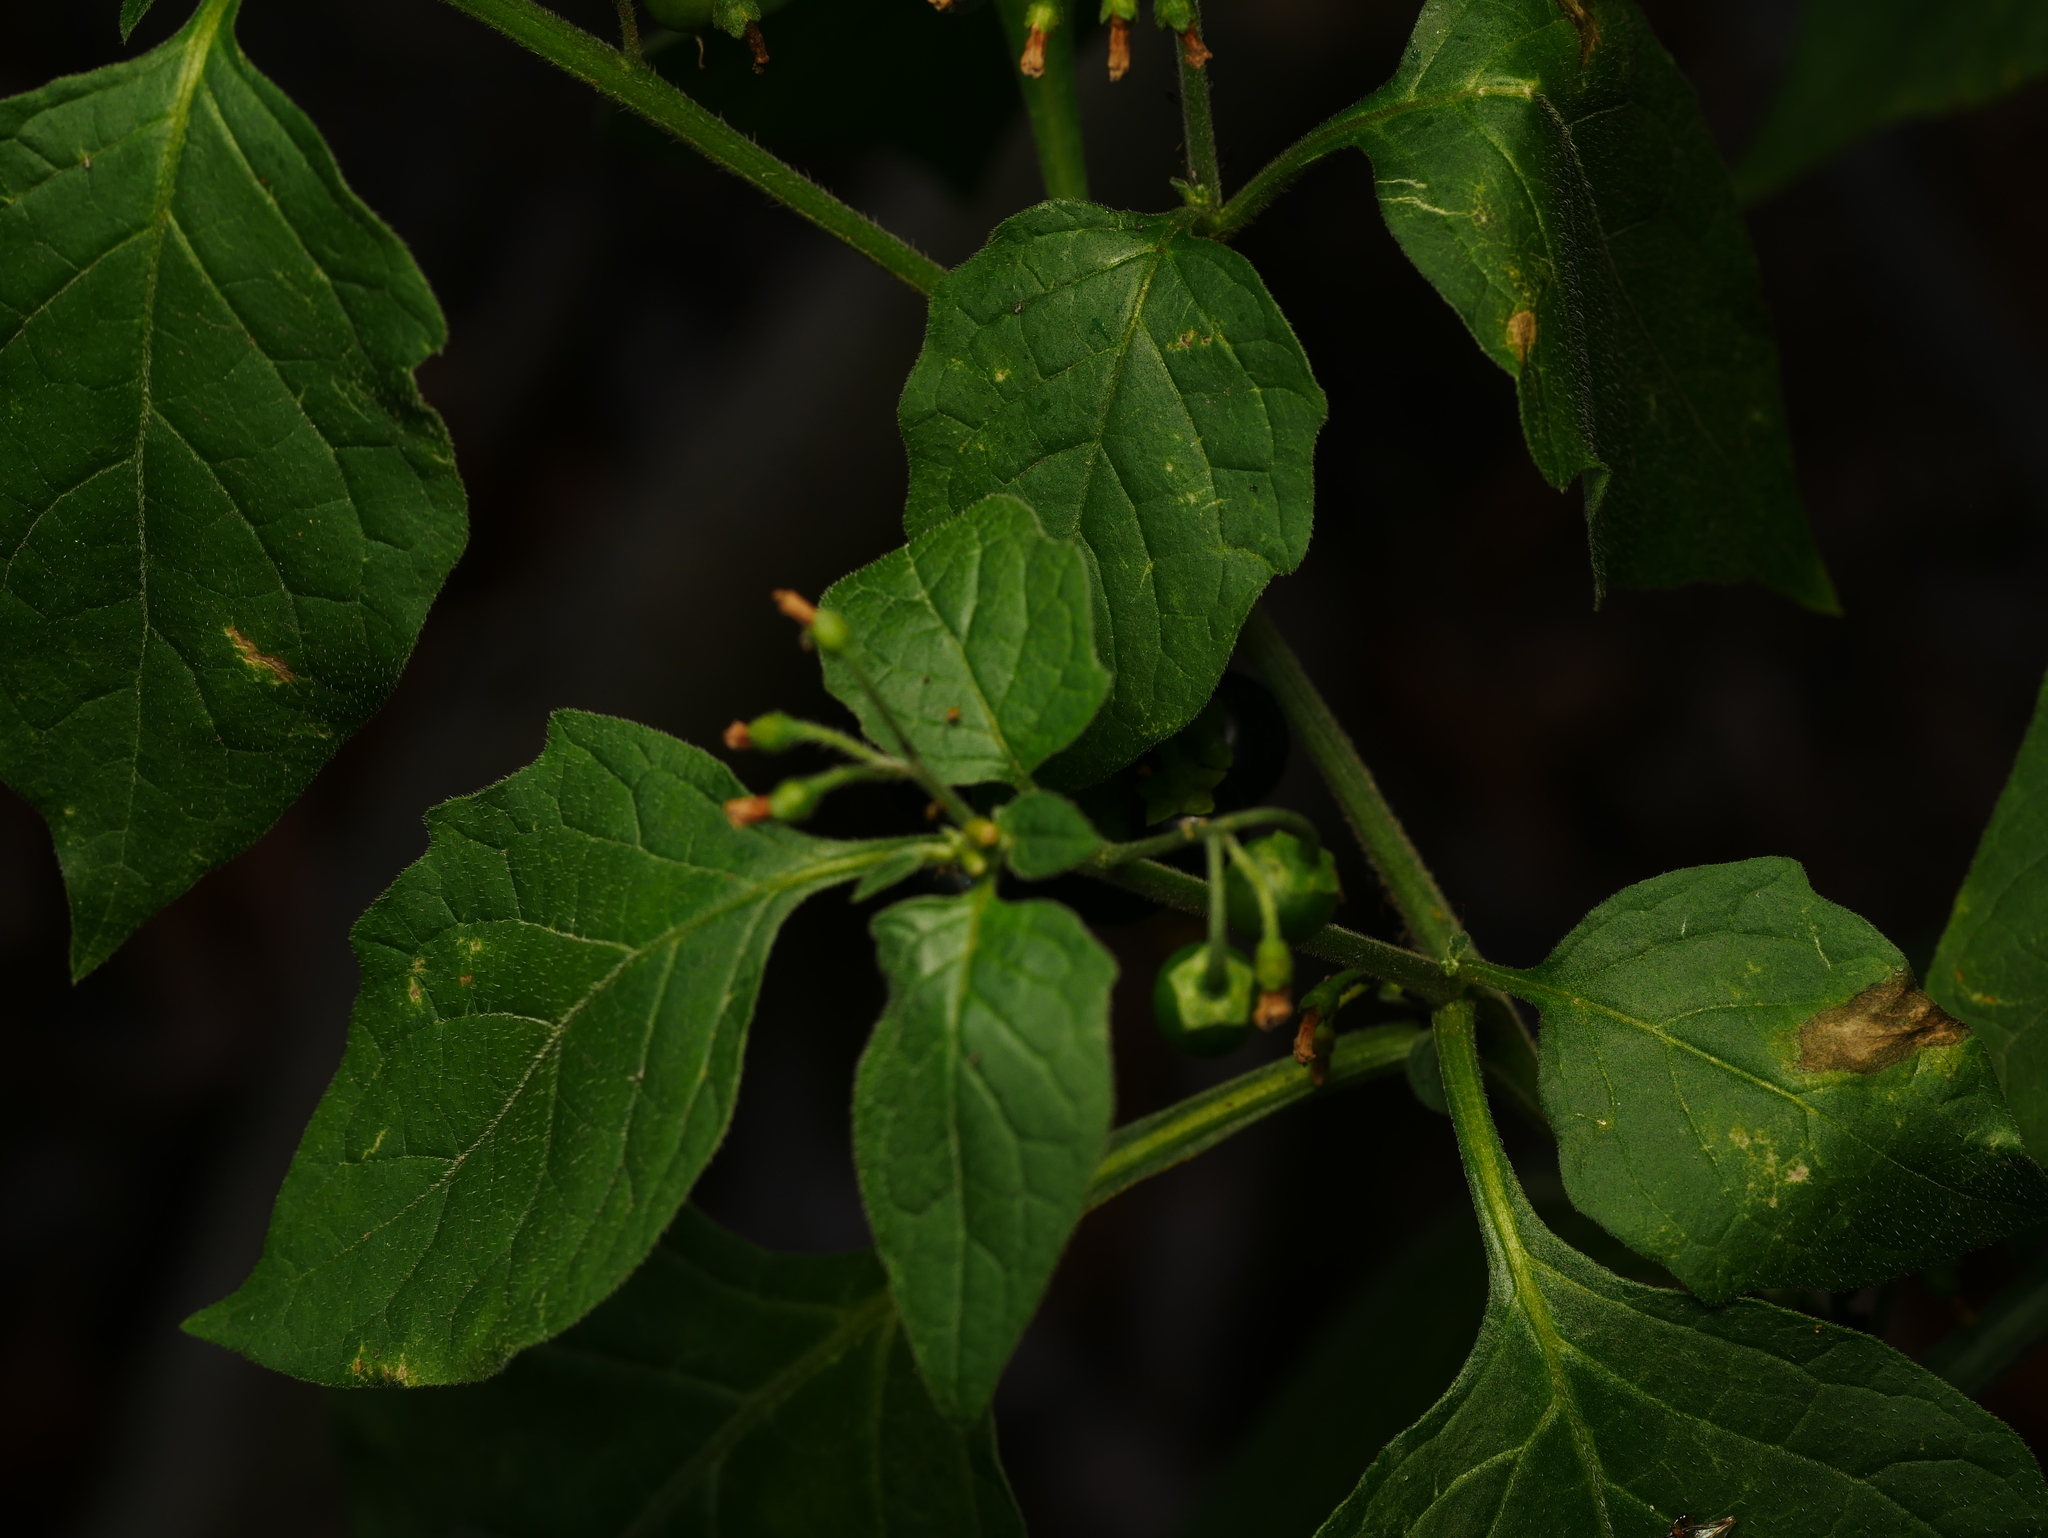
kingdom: Plantae
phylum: Tracheophyta
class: Magnoliopsida
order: Solanales
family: Solanaceae
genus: Solanum
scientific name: Solanum nigrum
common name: Black nightshade
